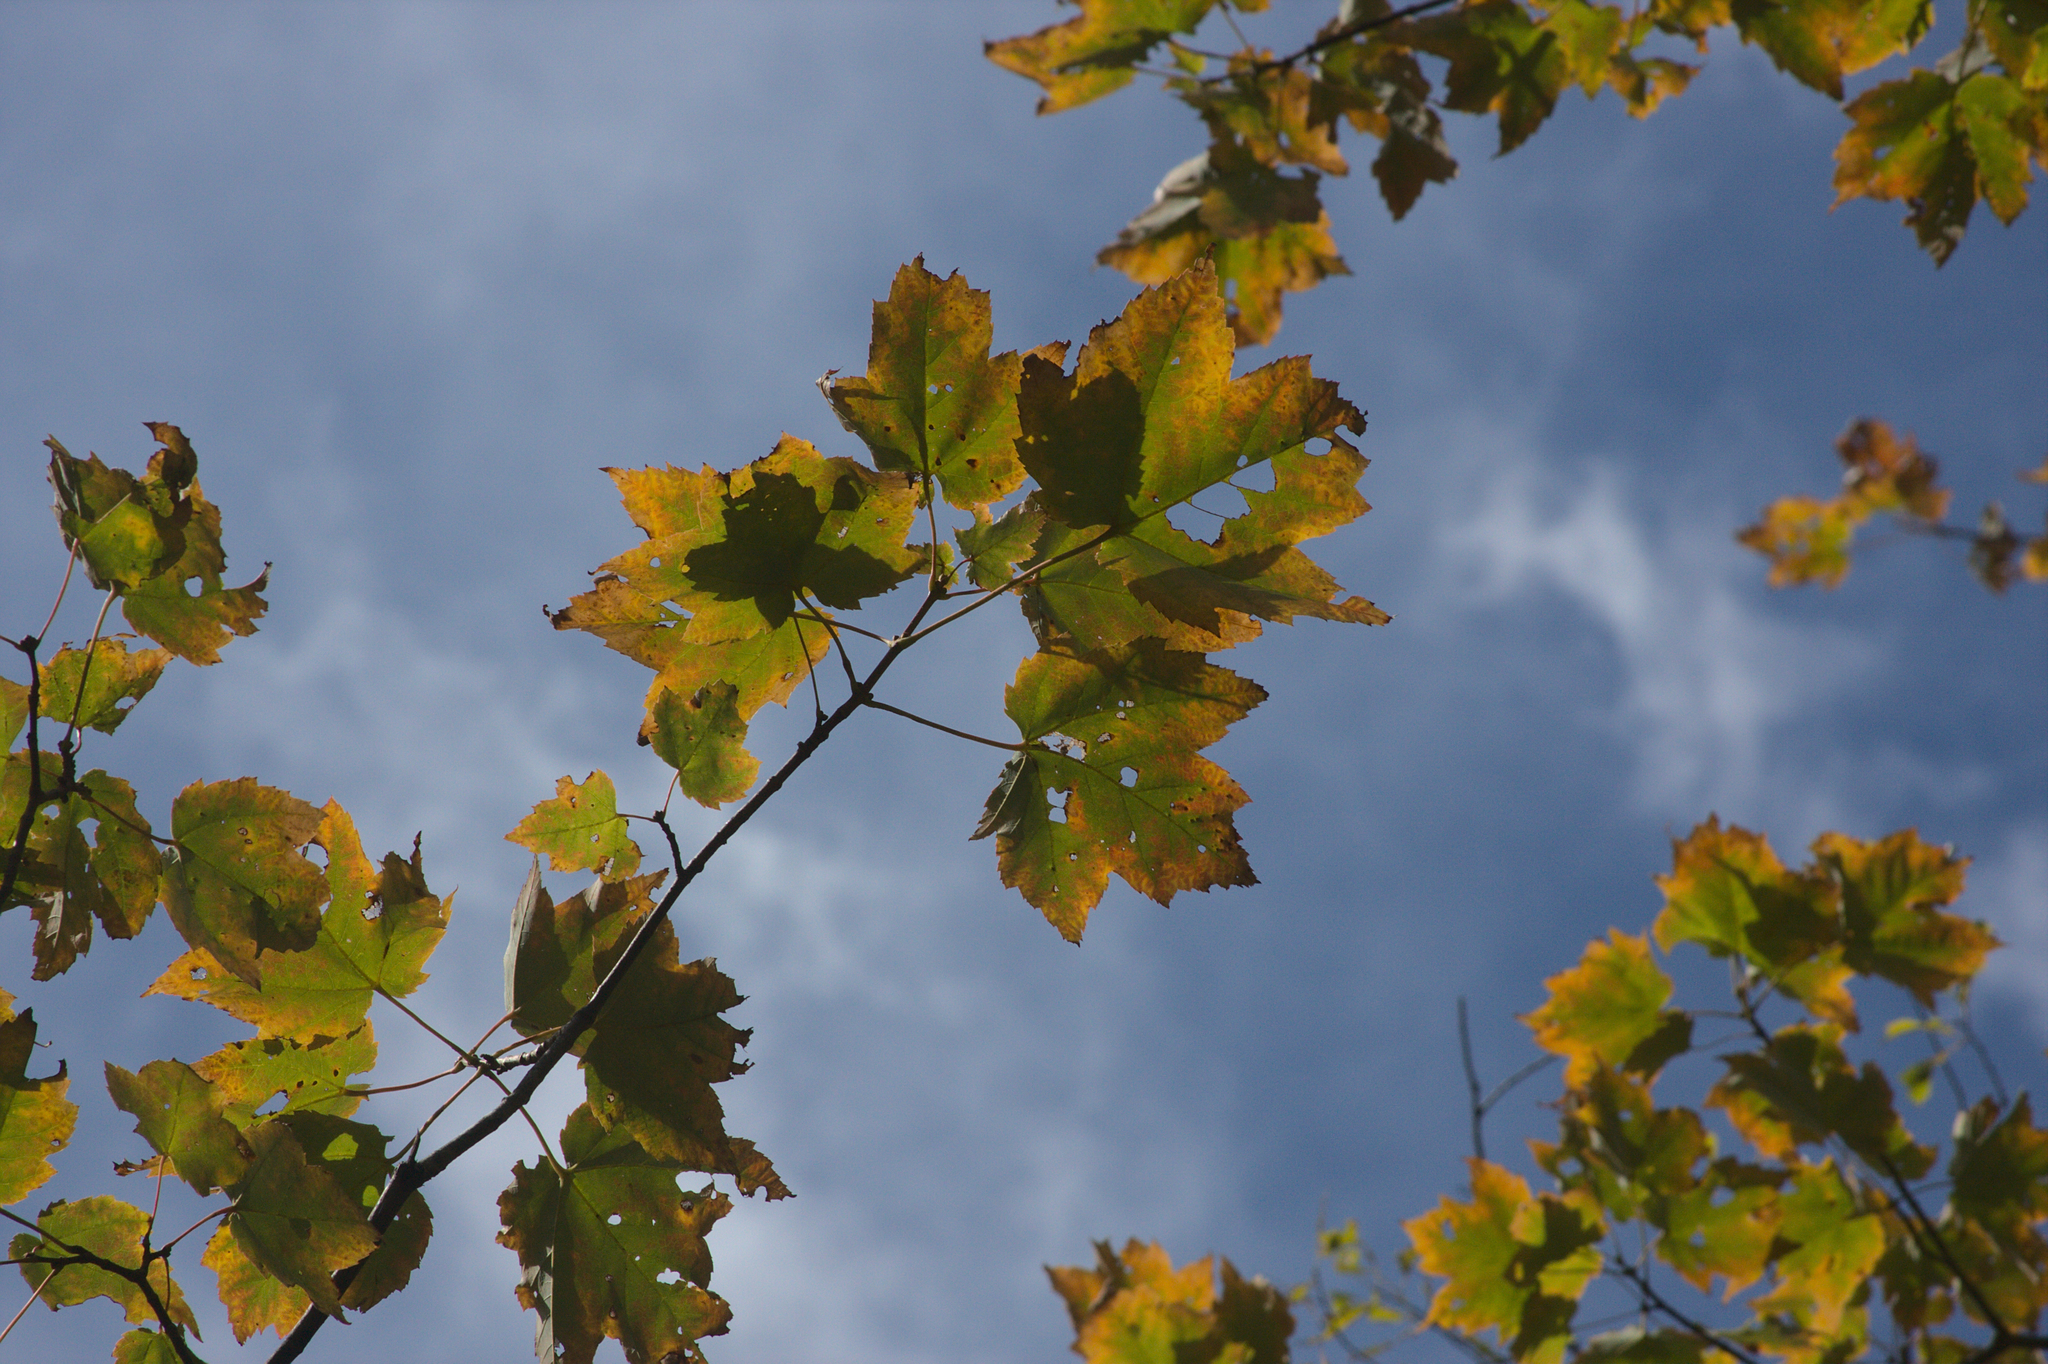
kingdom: Plantae
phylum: Tracheophyta
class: Magnoliopsida
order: Sapindales
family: Sapindaceae
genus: Acer
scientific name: Acer rubrum
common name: Red maple
